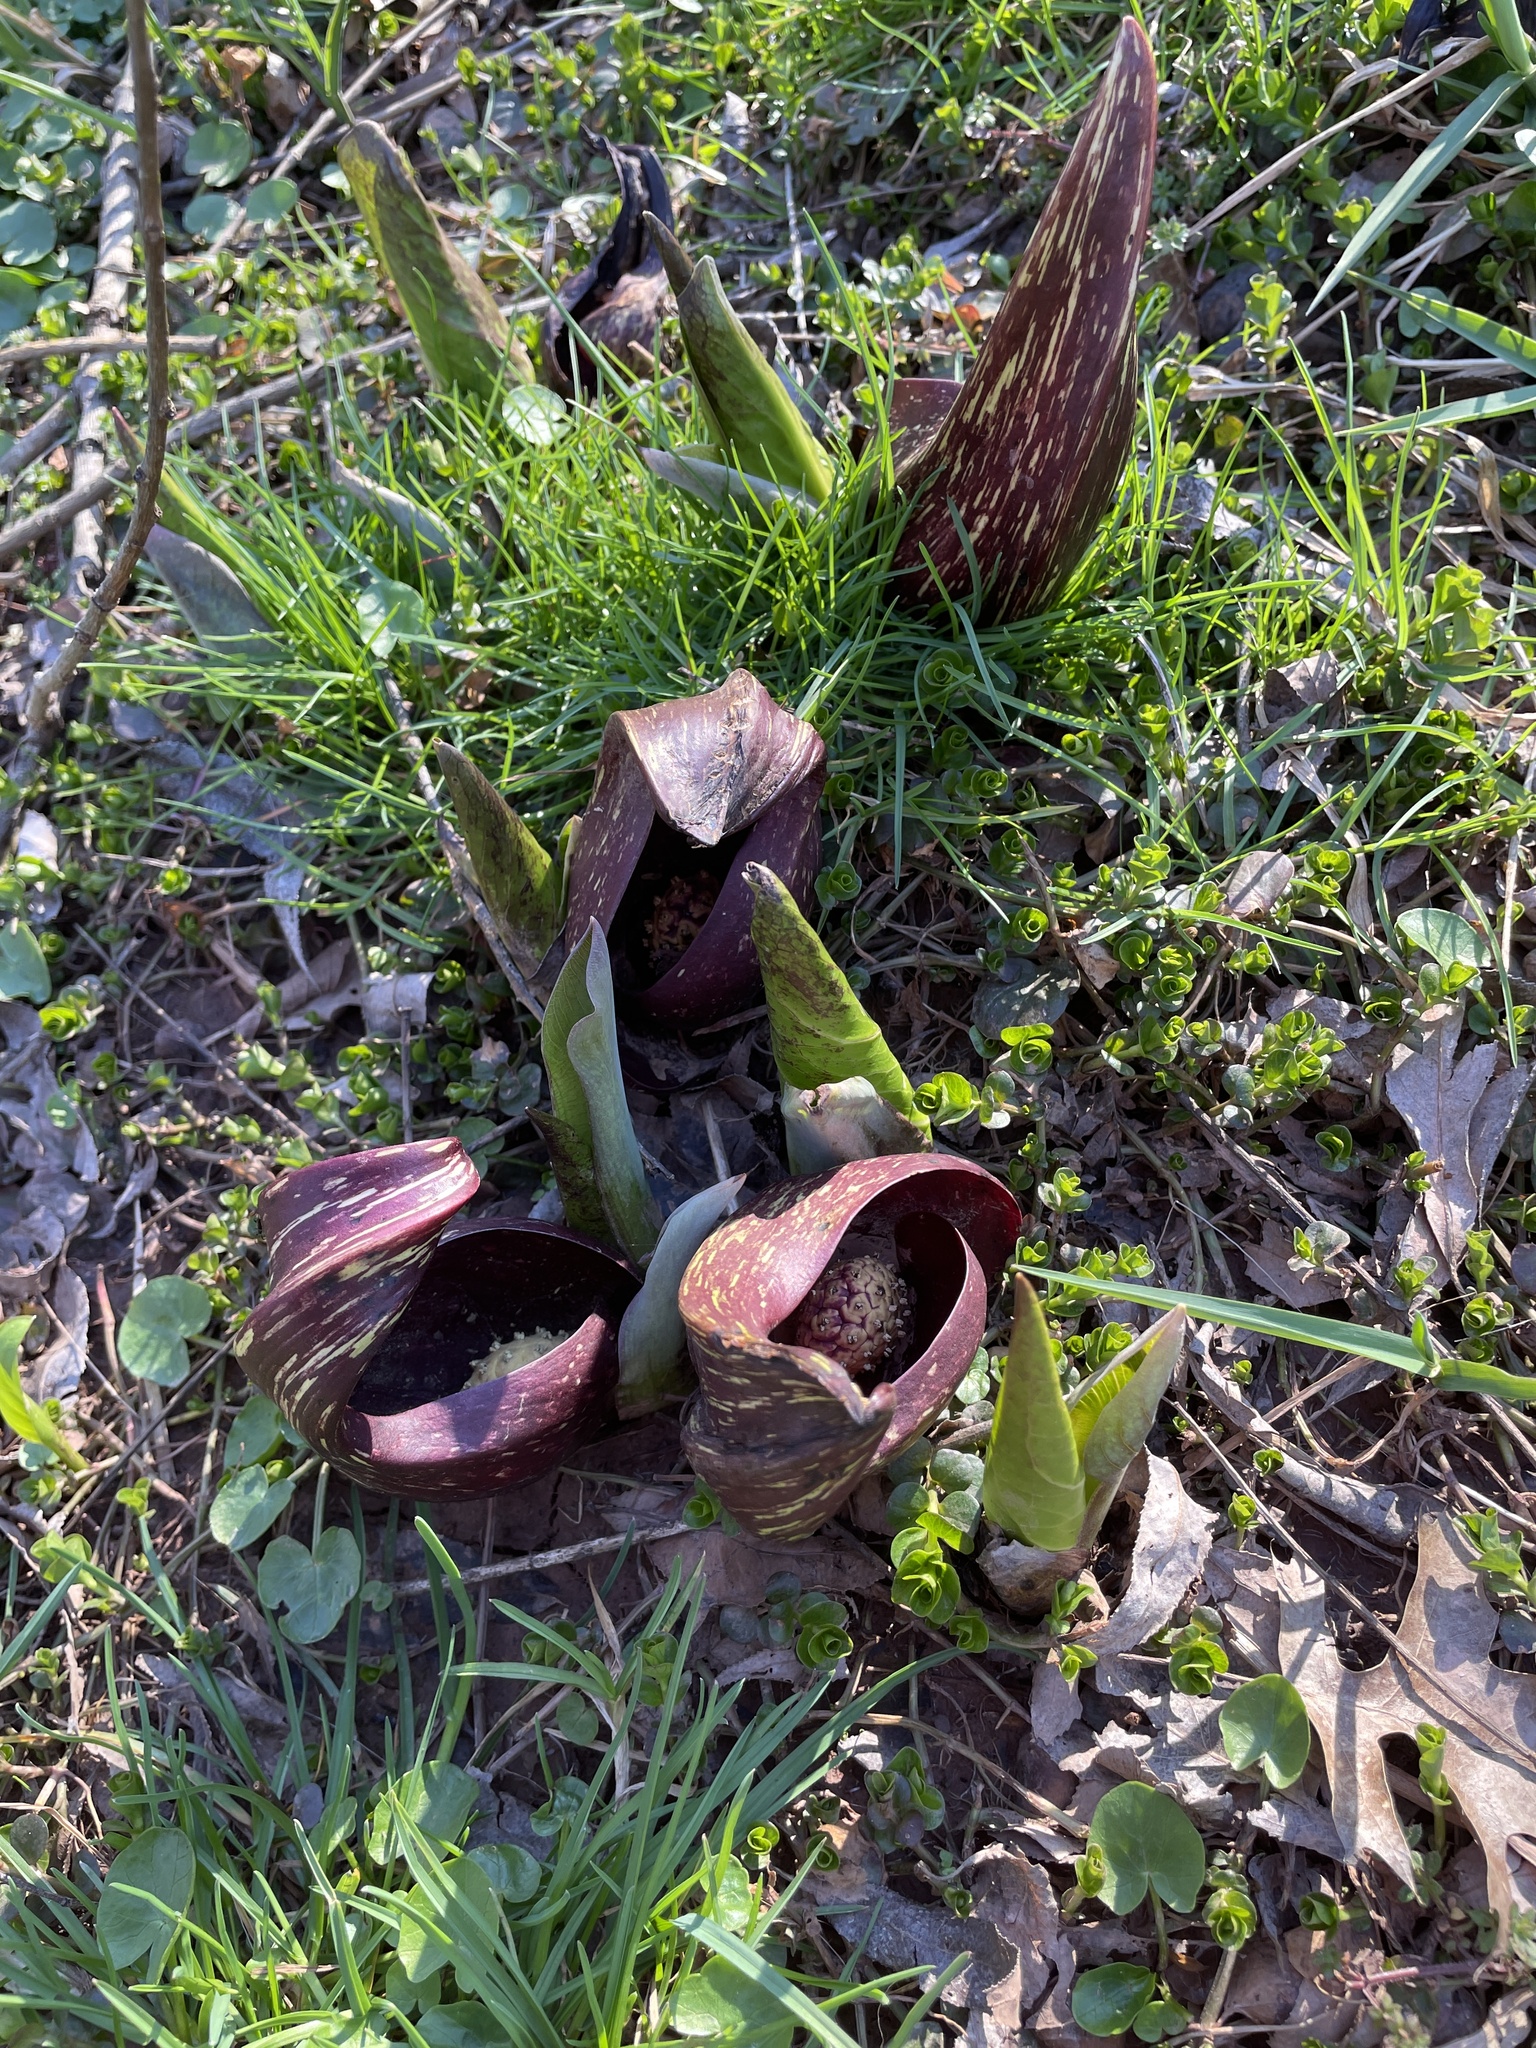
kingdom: Plantae
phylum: Tracheophyta
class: Liliopsida
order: Alismatales
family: Araceae
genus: Symplocarpus
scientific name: Symplocarpus foetidus
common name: Eastern skunk cabbage
